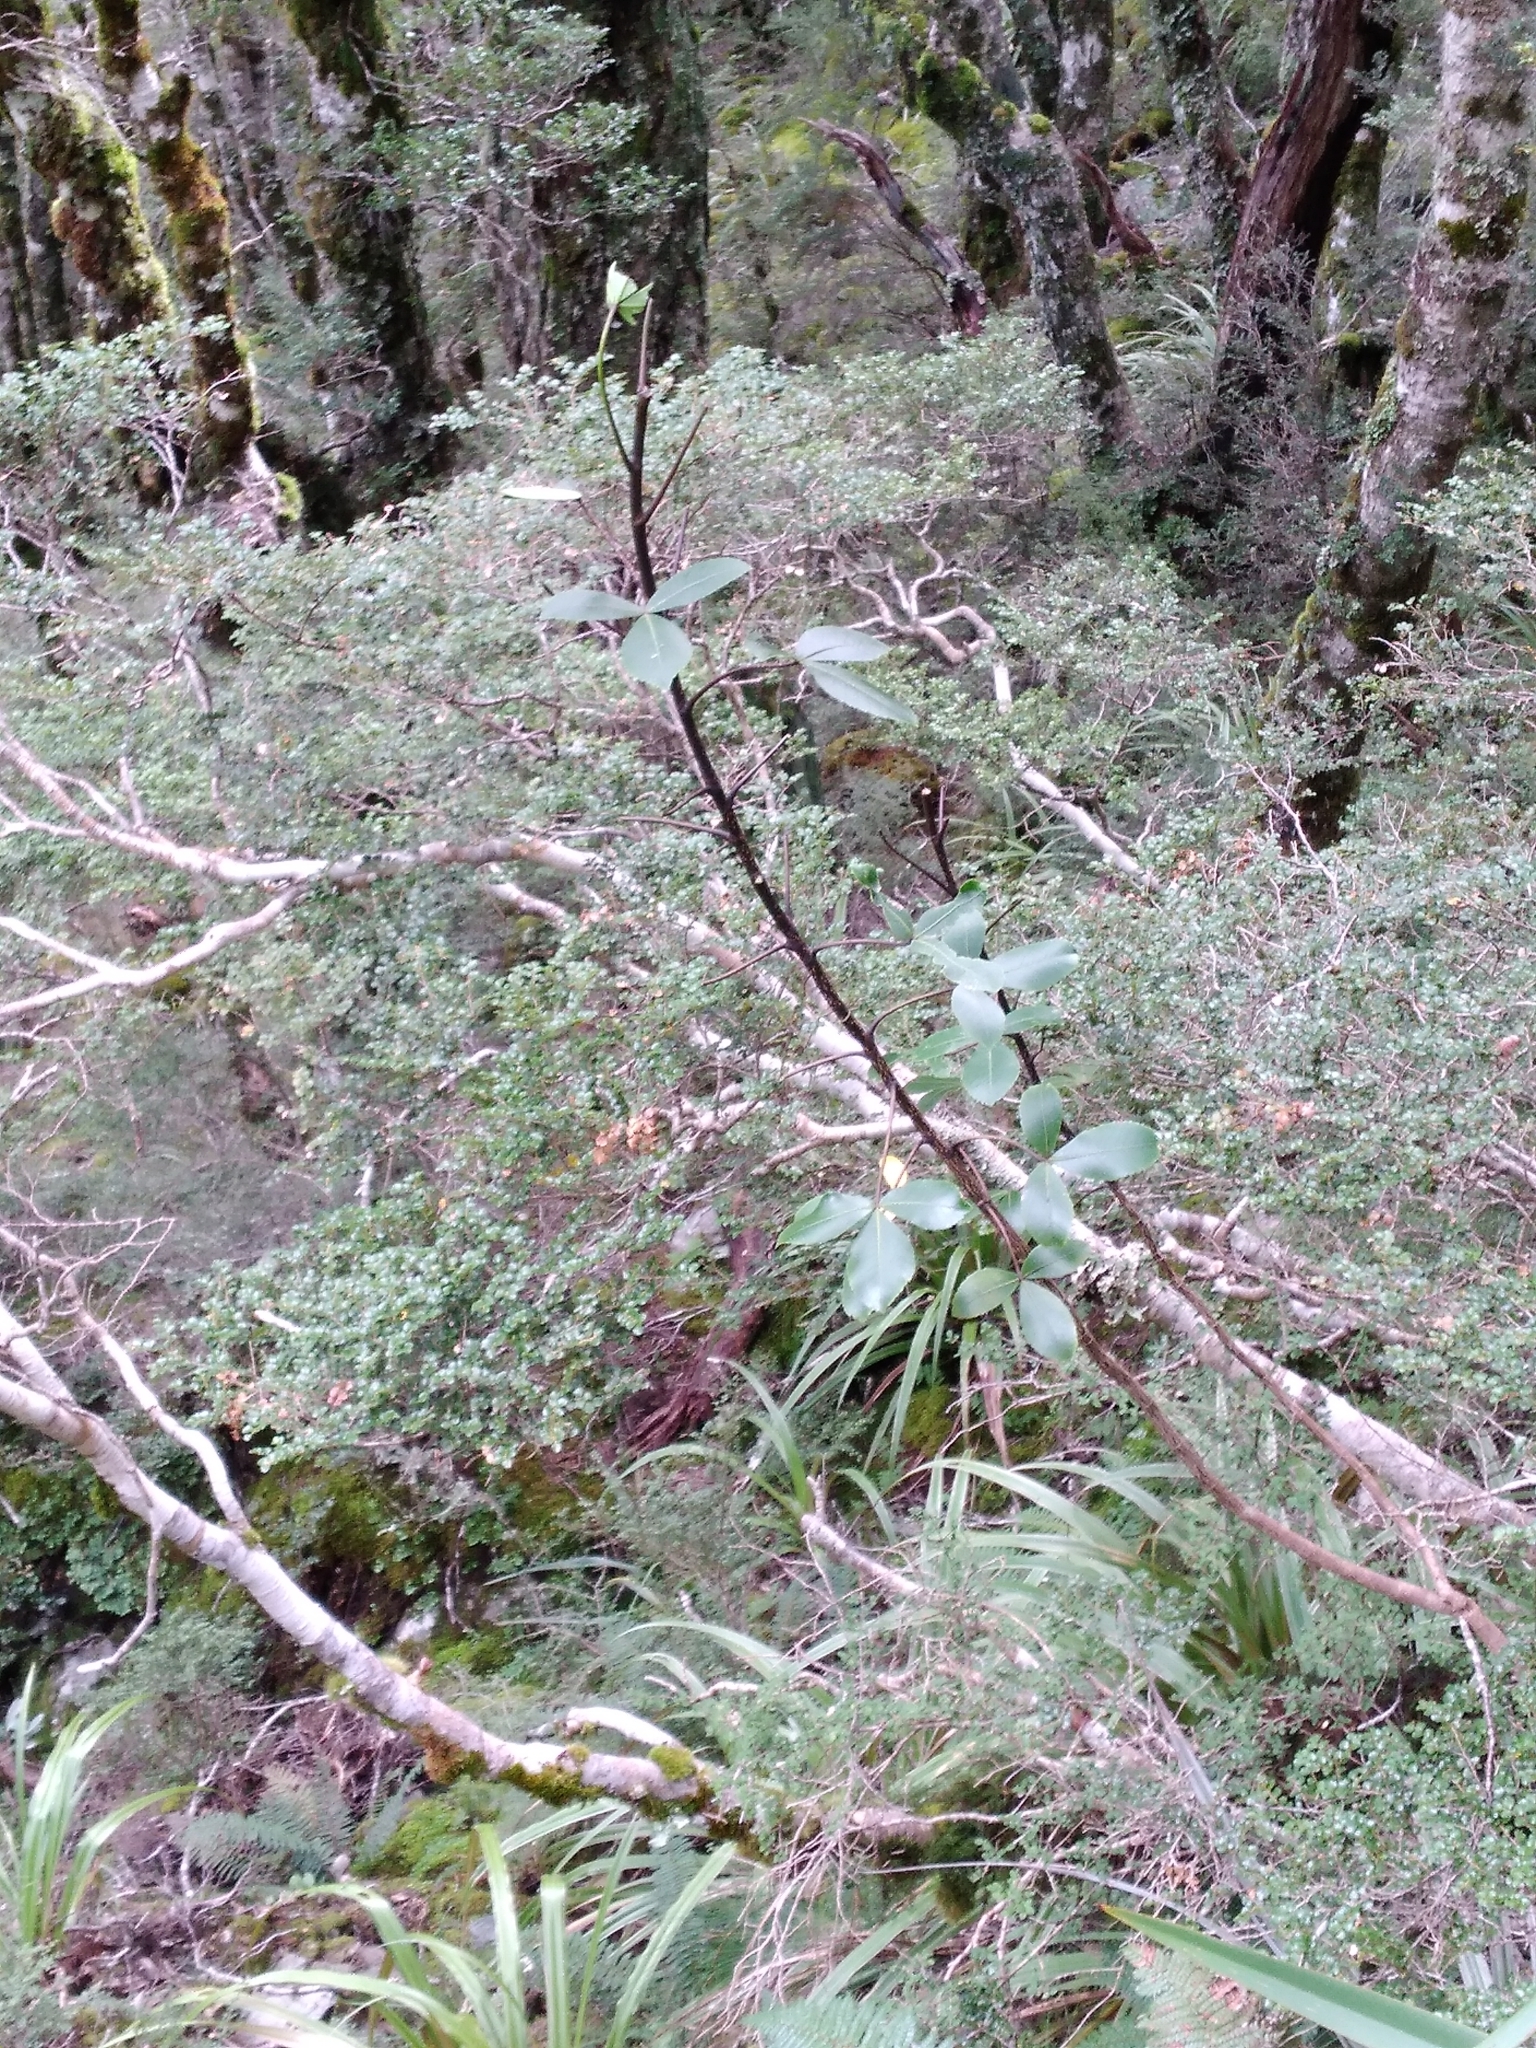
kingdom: Plantae
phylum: Tracheophyta
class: Magnoliopsida
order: Apiales
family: Araliaceae
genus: Neopanax
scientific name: Neopanax colensoi
